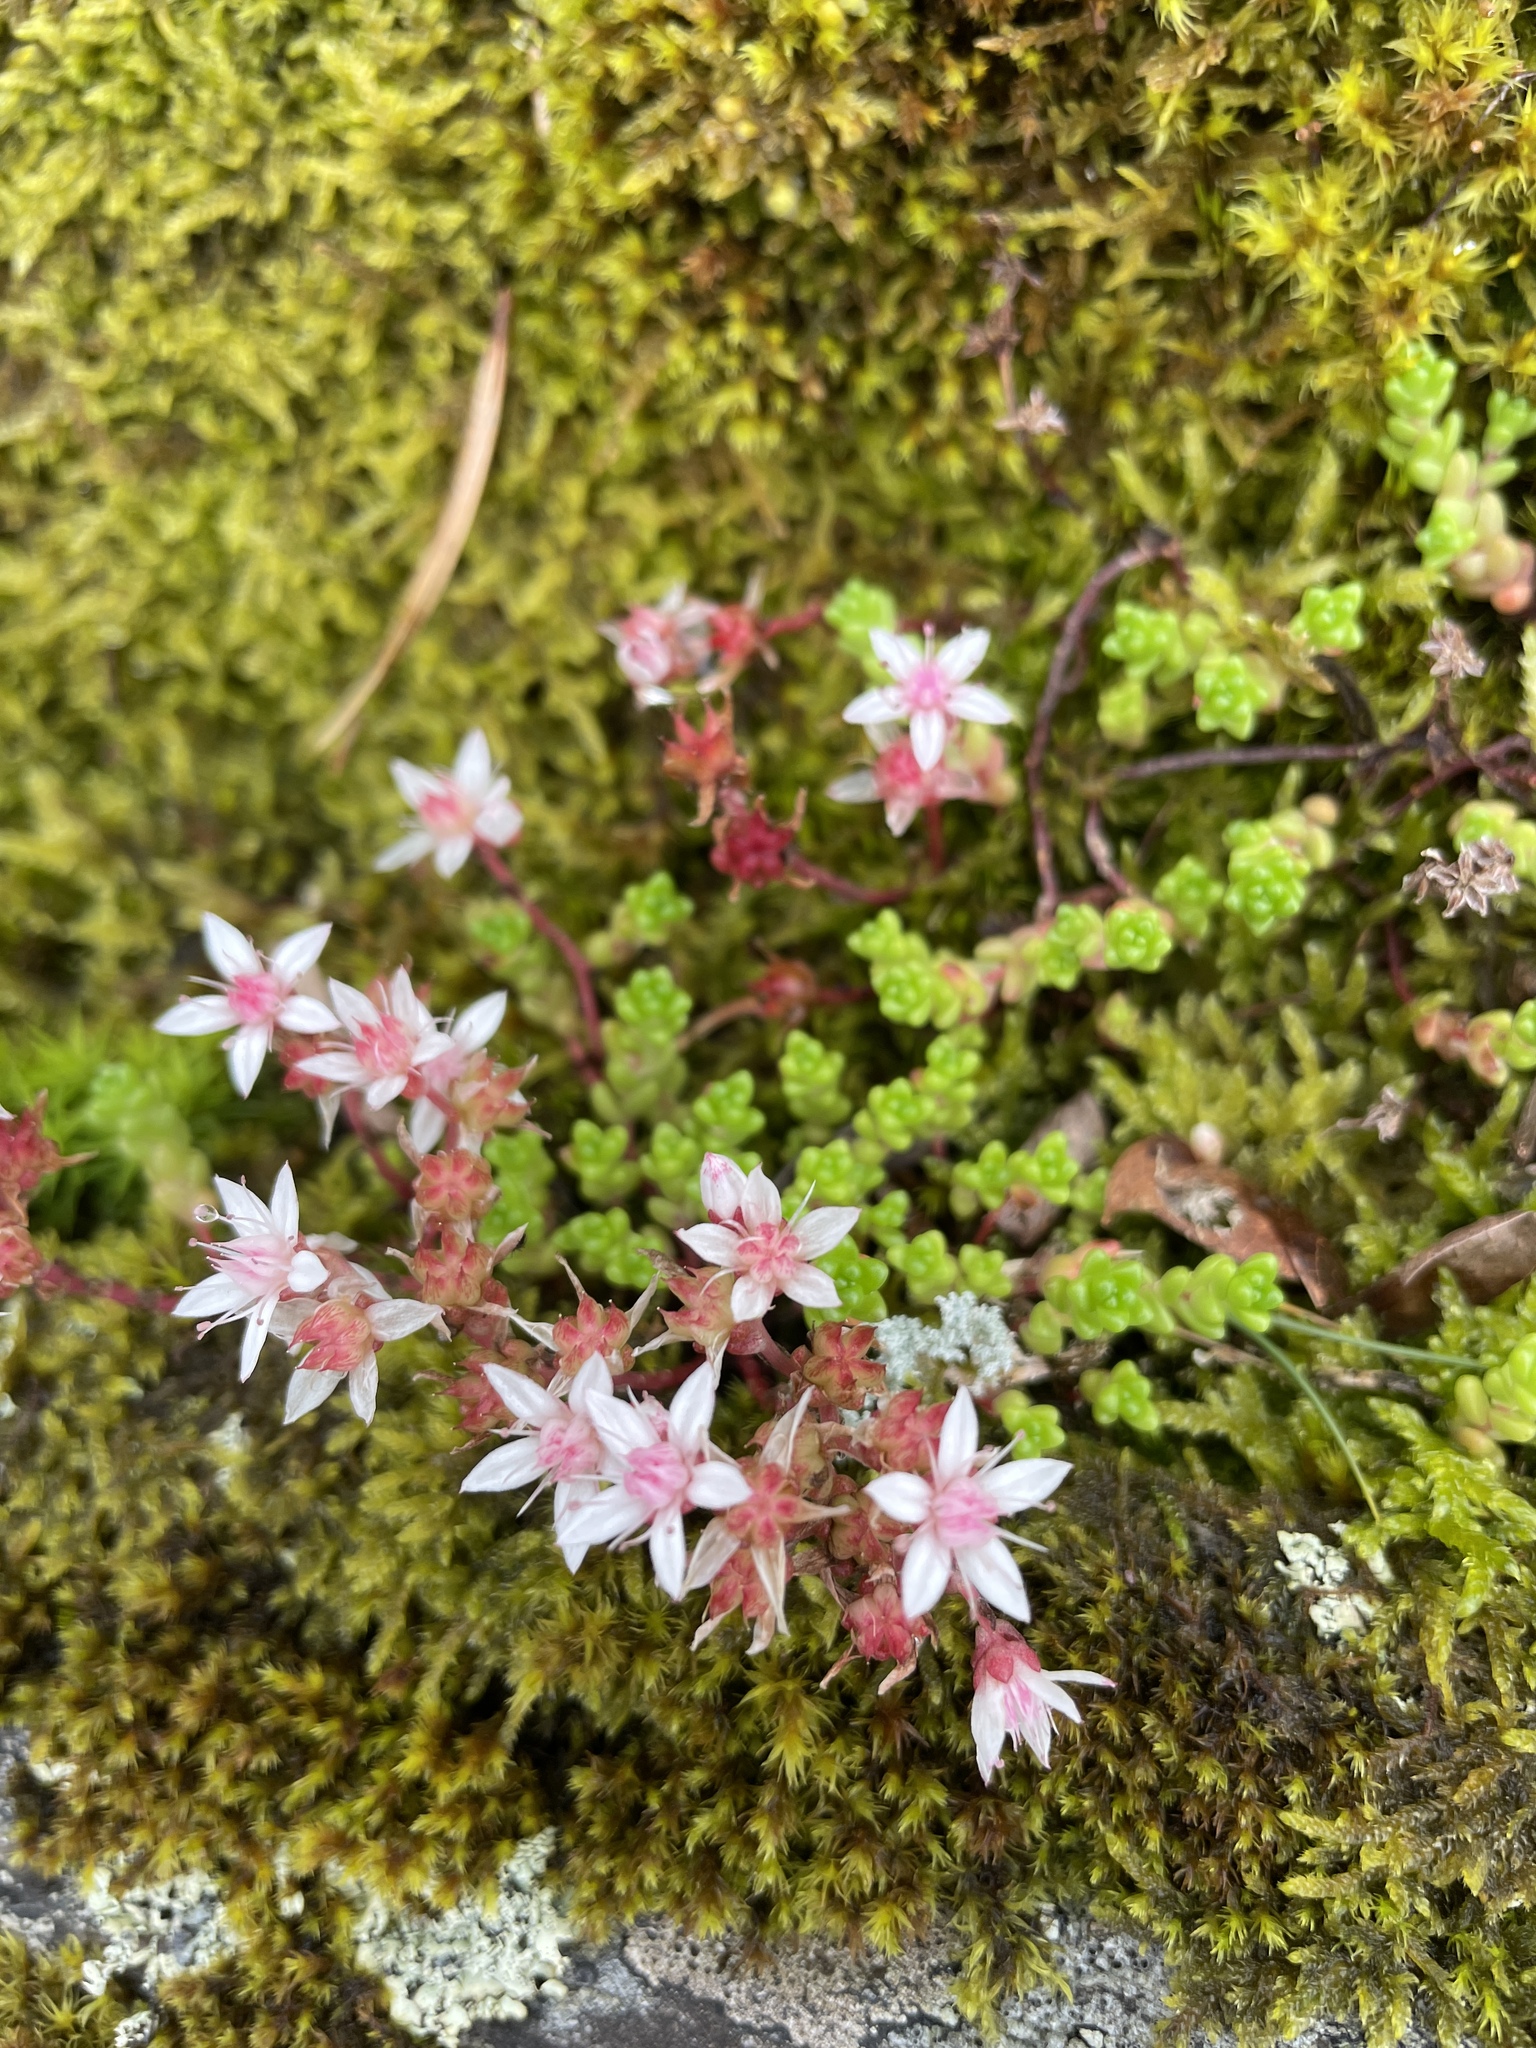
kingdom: Plantae
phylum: Tracheophyta
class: Magnoliopsida
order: Saxifragales
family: Crassulaceae
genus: Sedum
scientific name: Sedum anglicum
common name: English stonecrop
